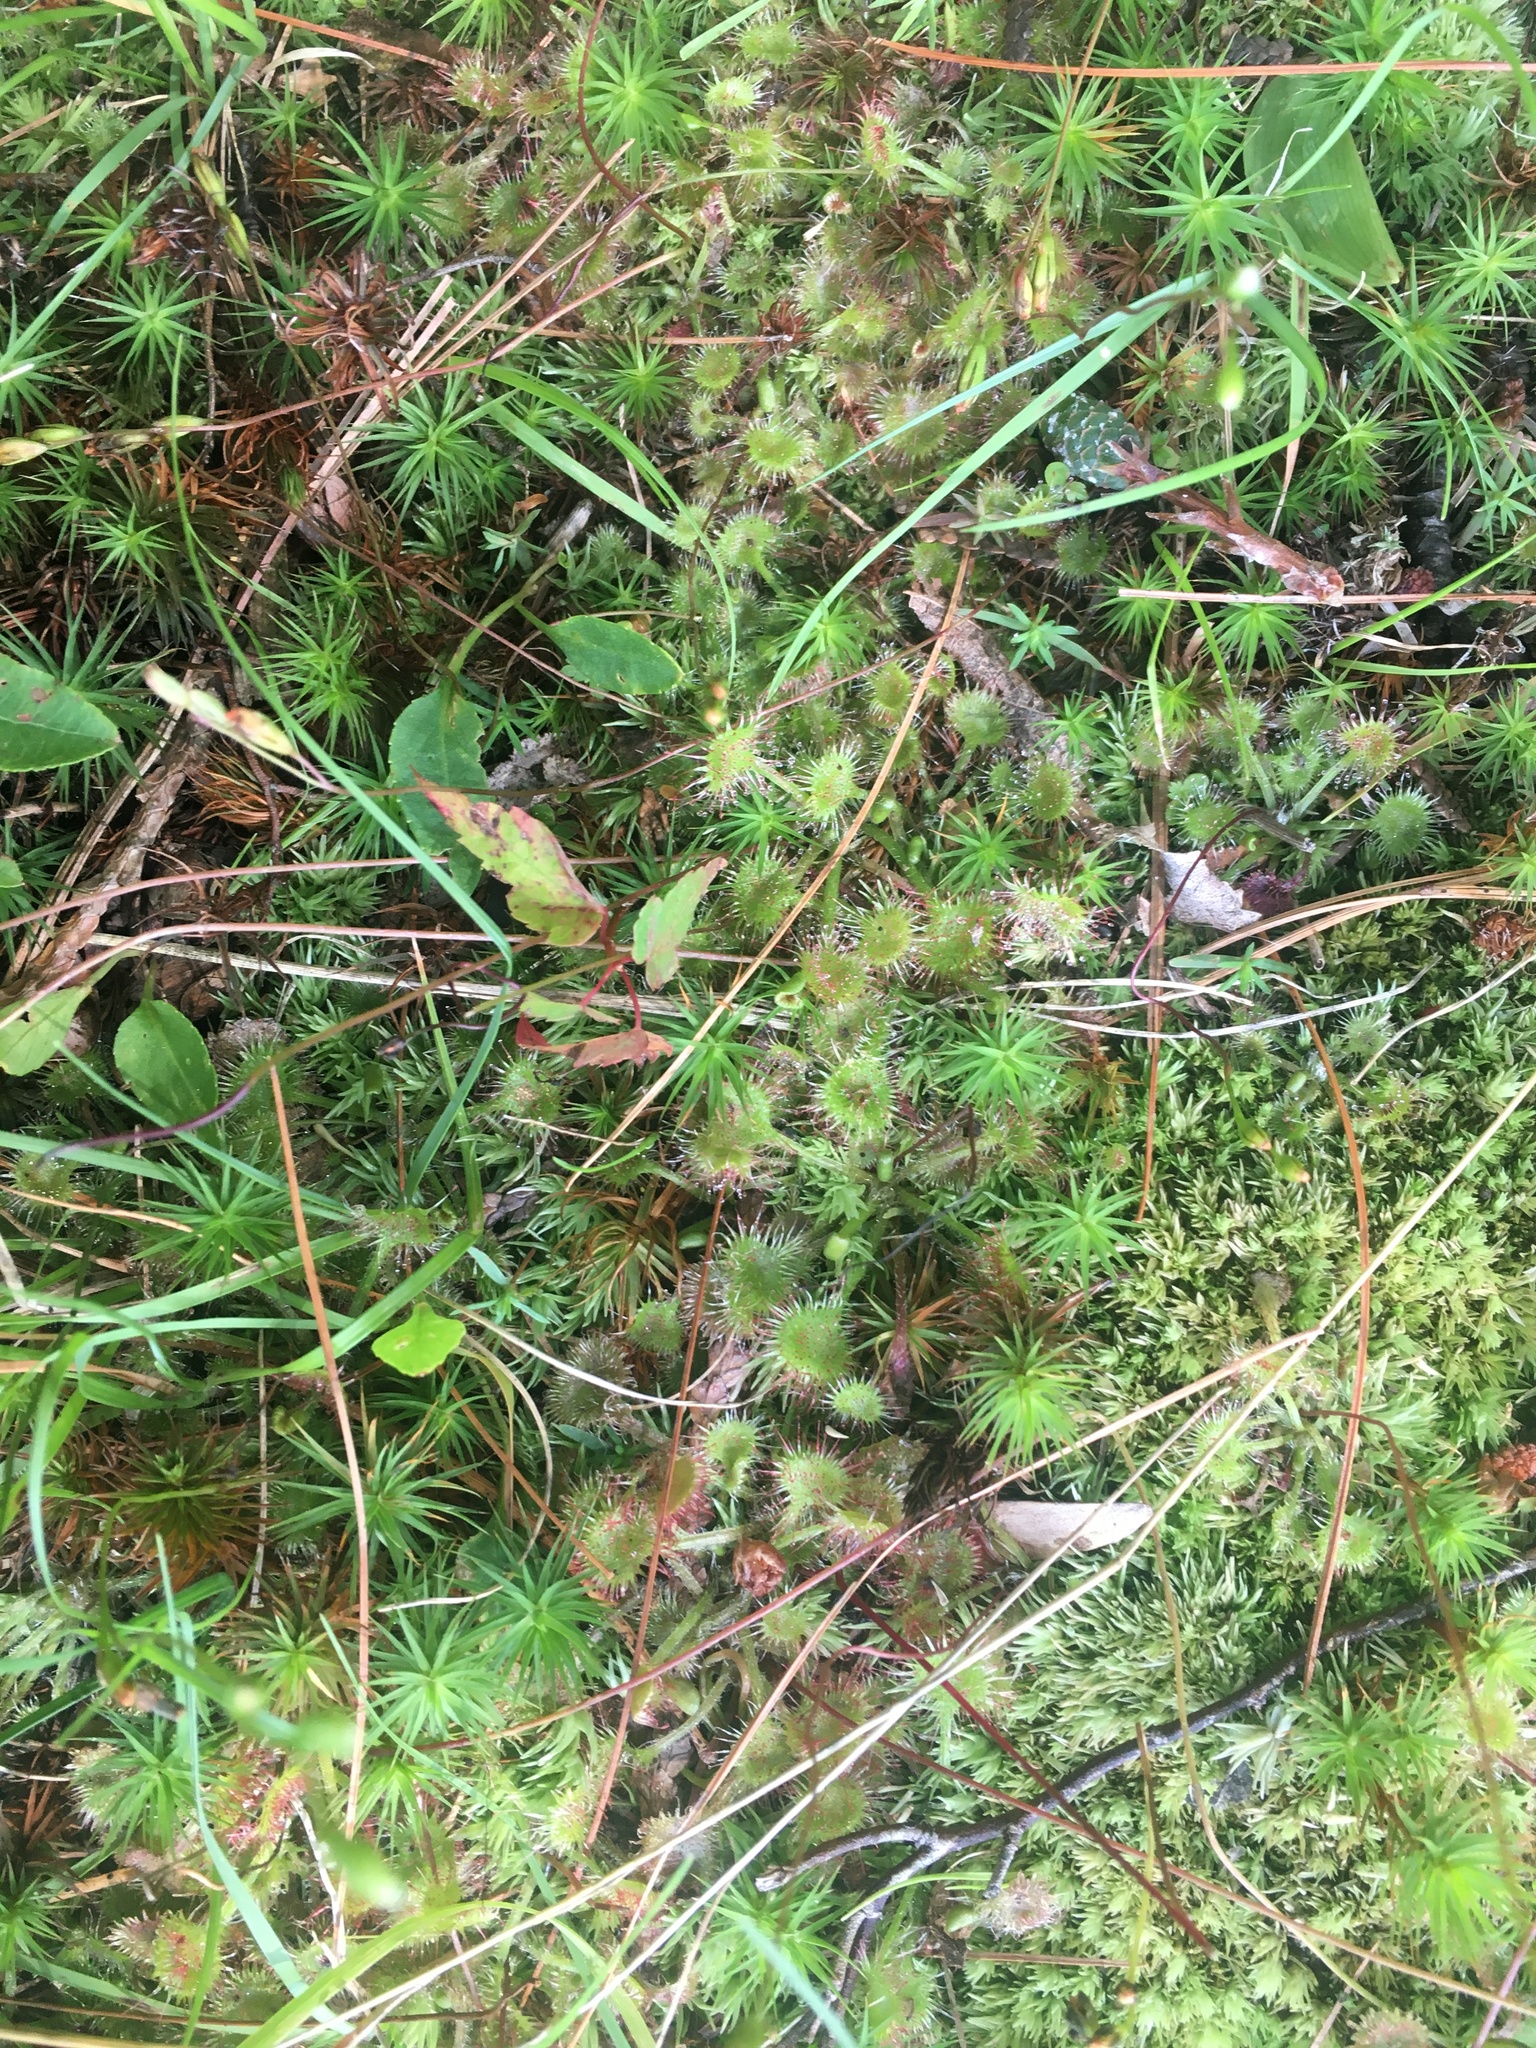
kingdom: Plantae
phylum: Tracheophyta
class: Magnoliopsida
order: Caryophyllales
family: Droseraceae
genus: Drosera
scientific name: Drosera rotundifolia
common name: Round-leaved sundew
